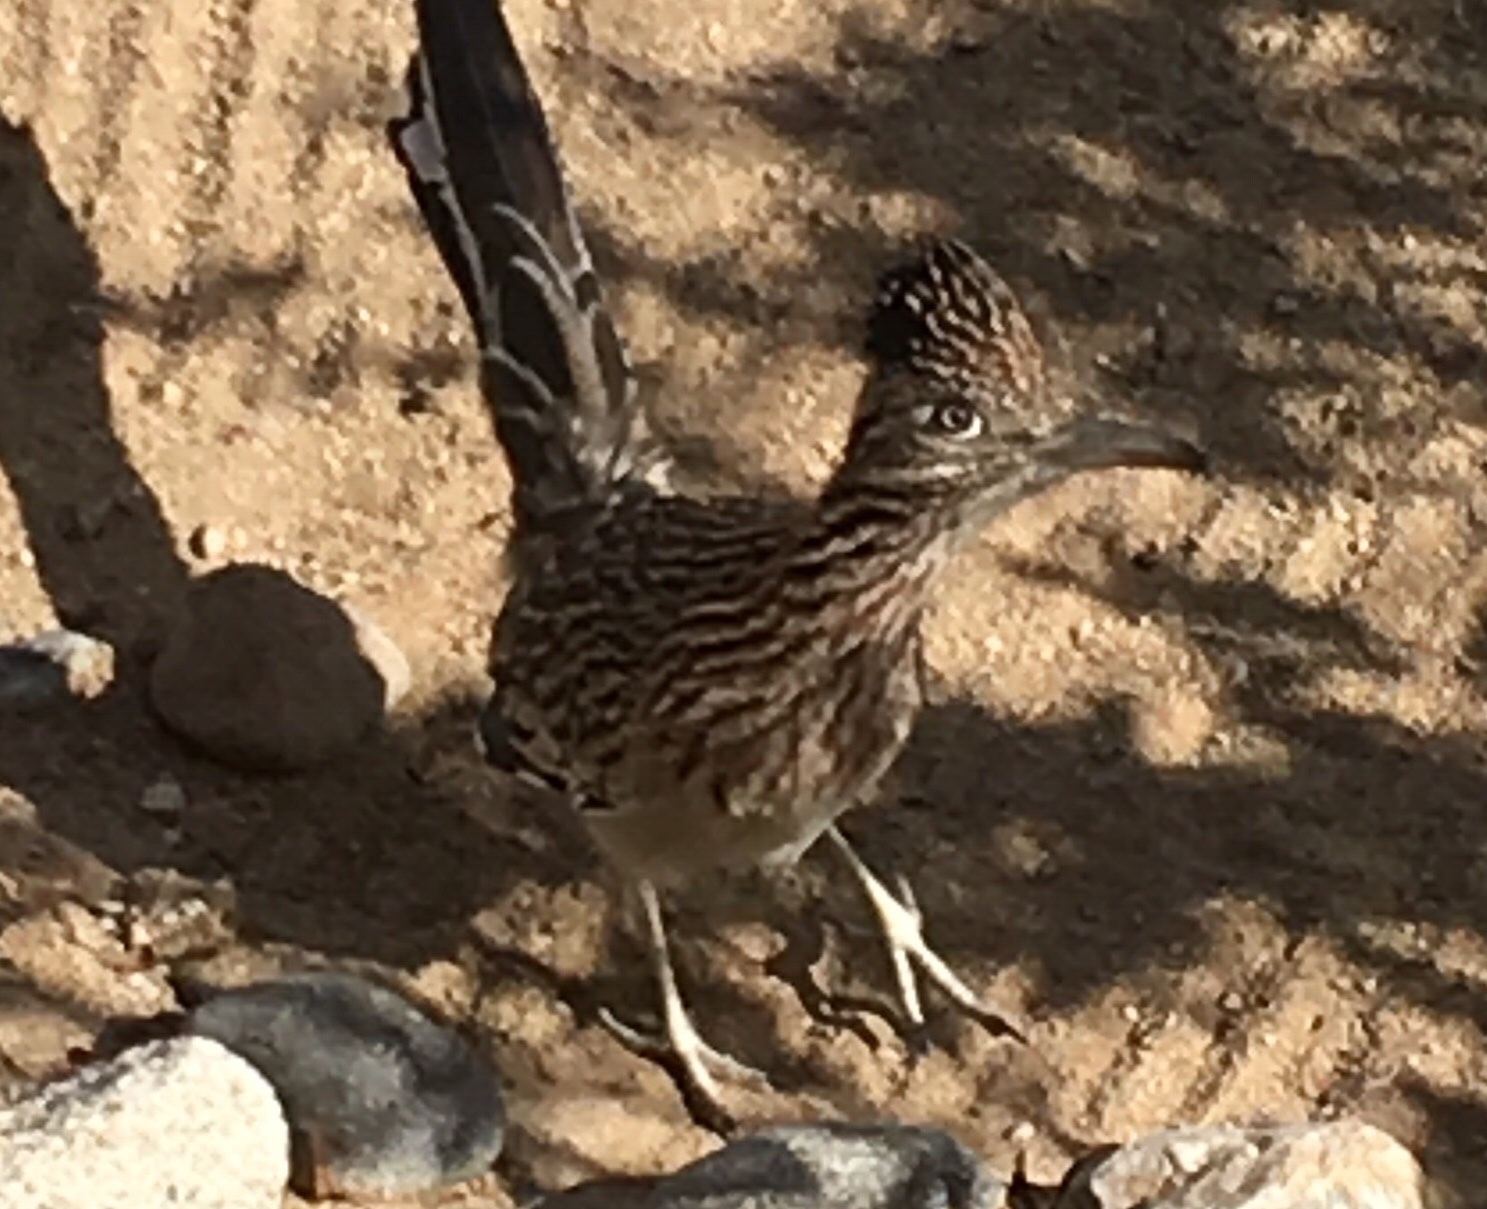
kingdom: Animalia
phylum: Chordata
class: Aves
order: Cuculiformes
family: Cuculidae
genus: Geococcyx
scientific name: Geococcyx californianus
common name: Greater roadrunner
